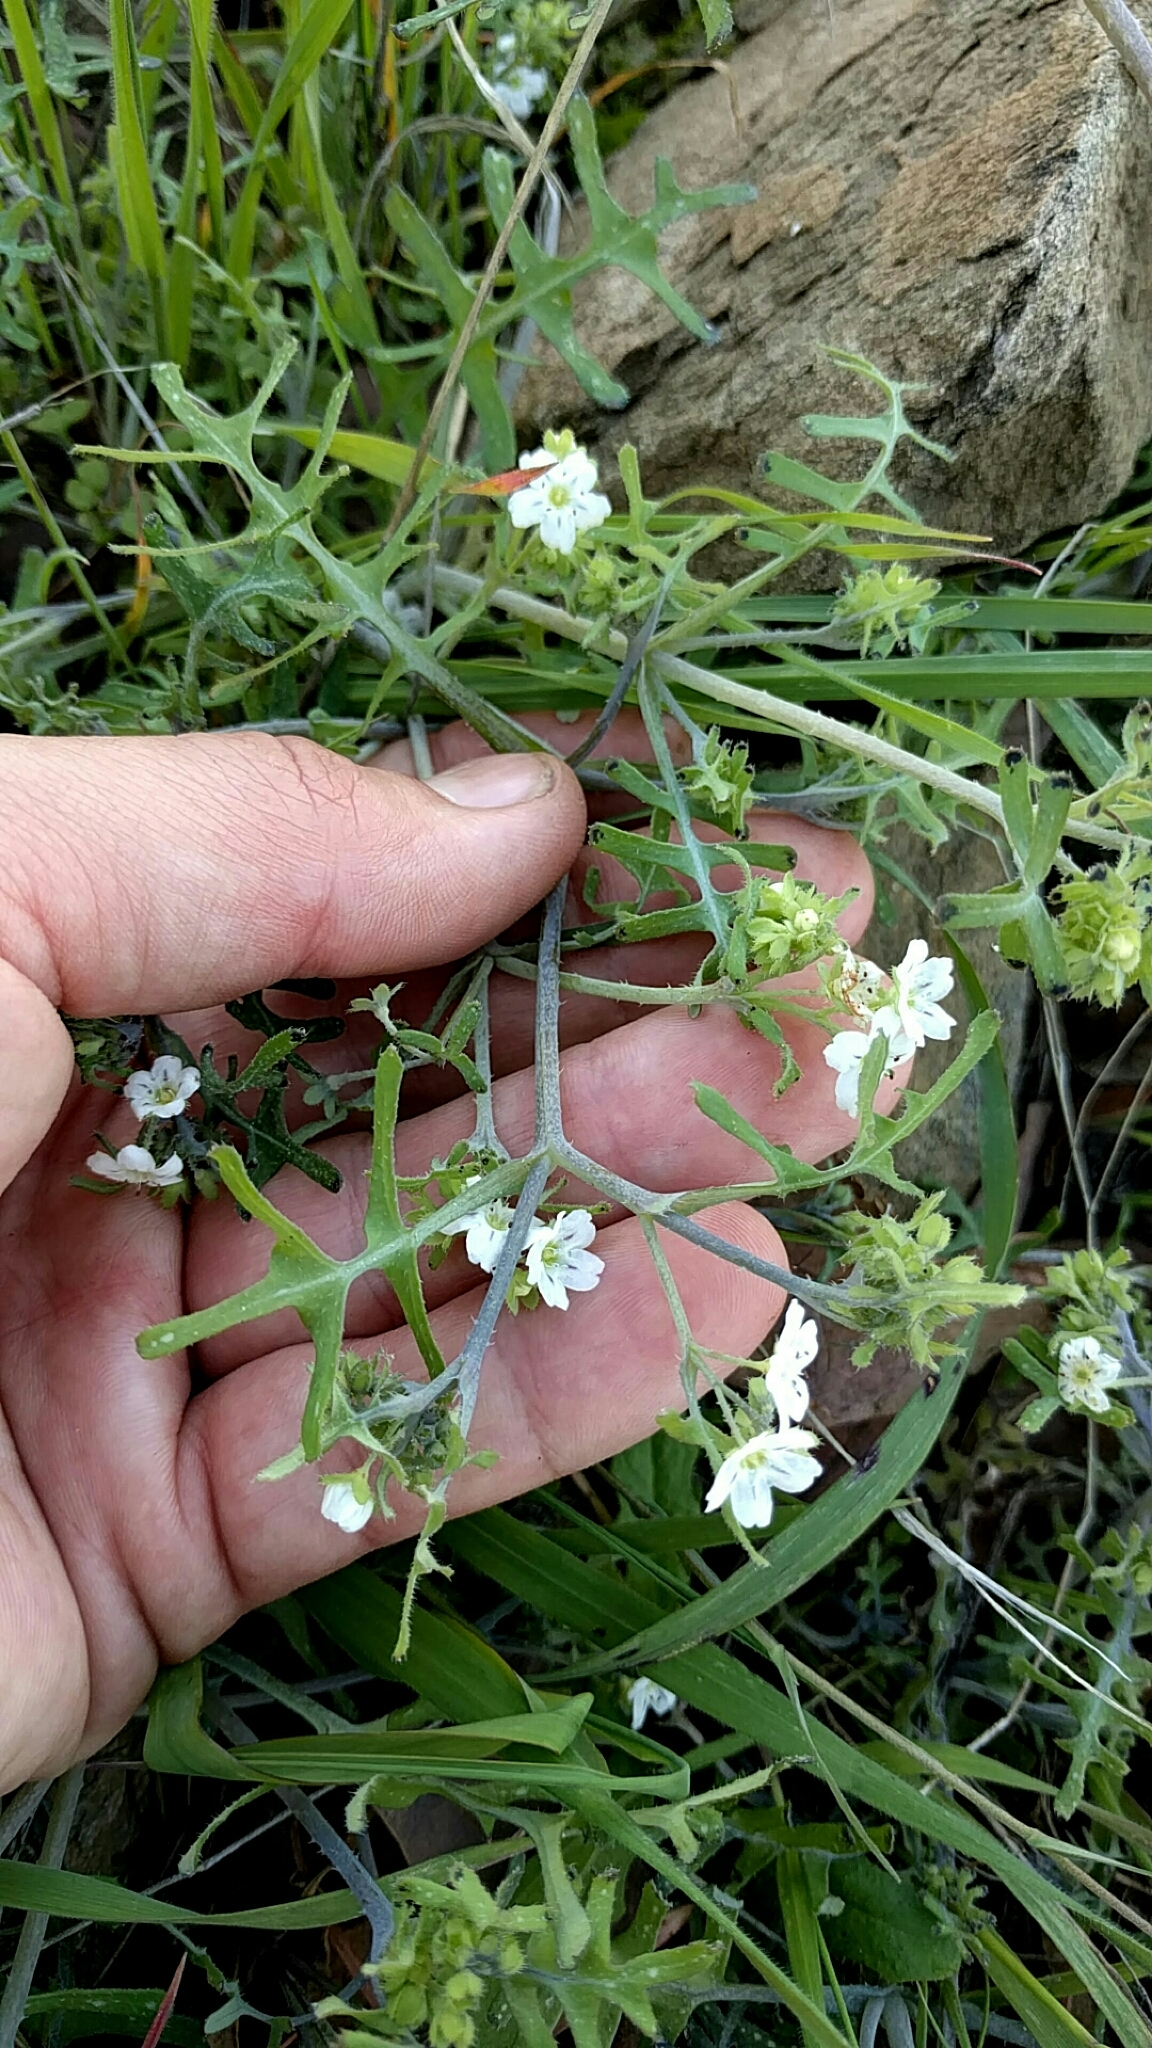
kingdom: Plantae
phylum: Tracheophyta
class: Magnoliopsida
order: Boraginales
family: Hydrophyllaceae
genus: Pholistoma
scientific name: Pholistoma membranaceum
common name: White fiesta-flower
